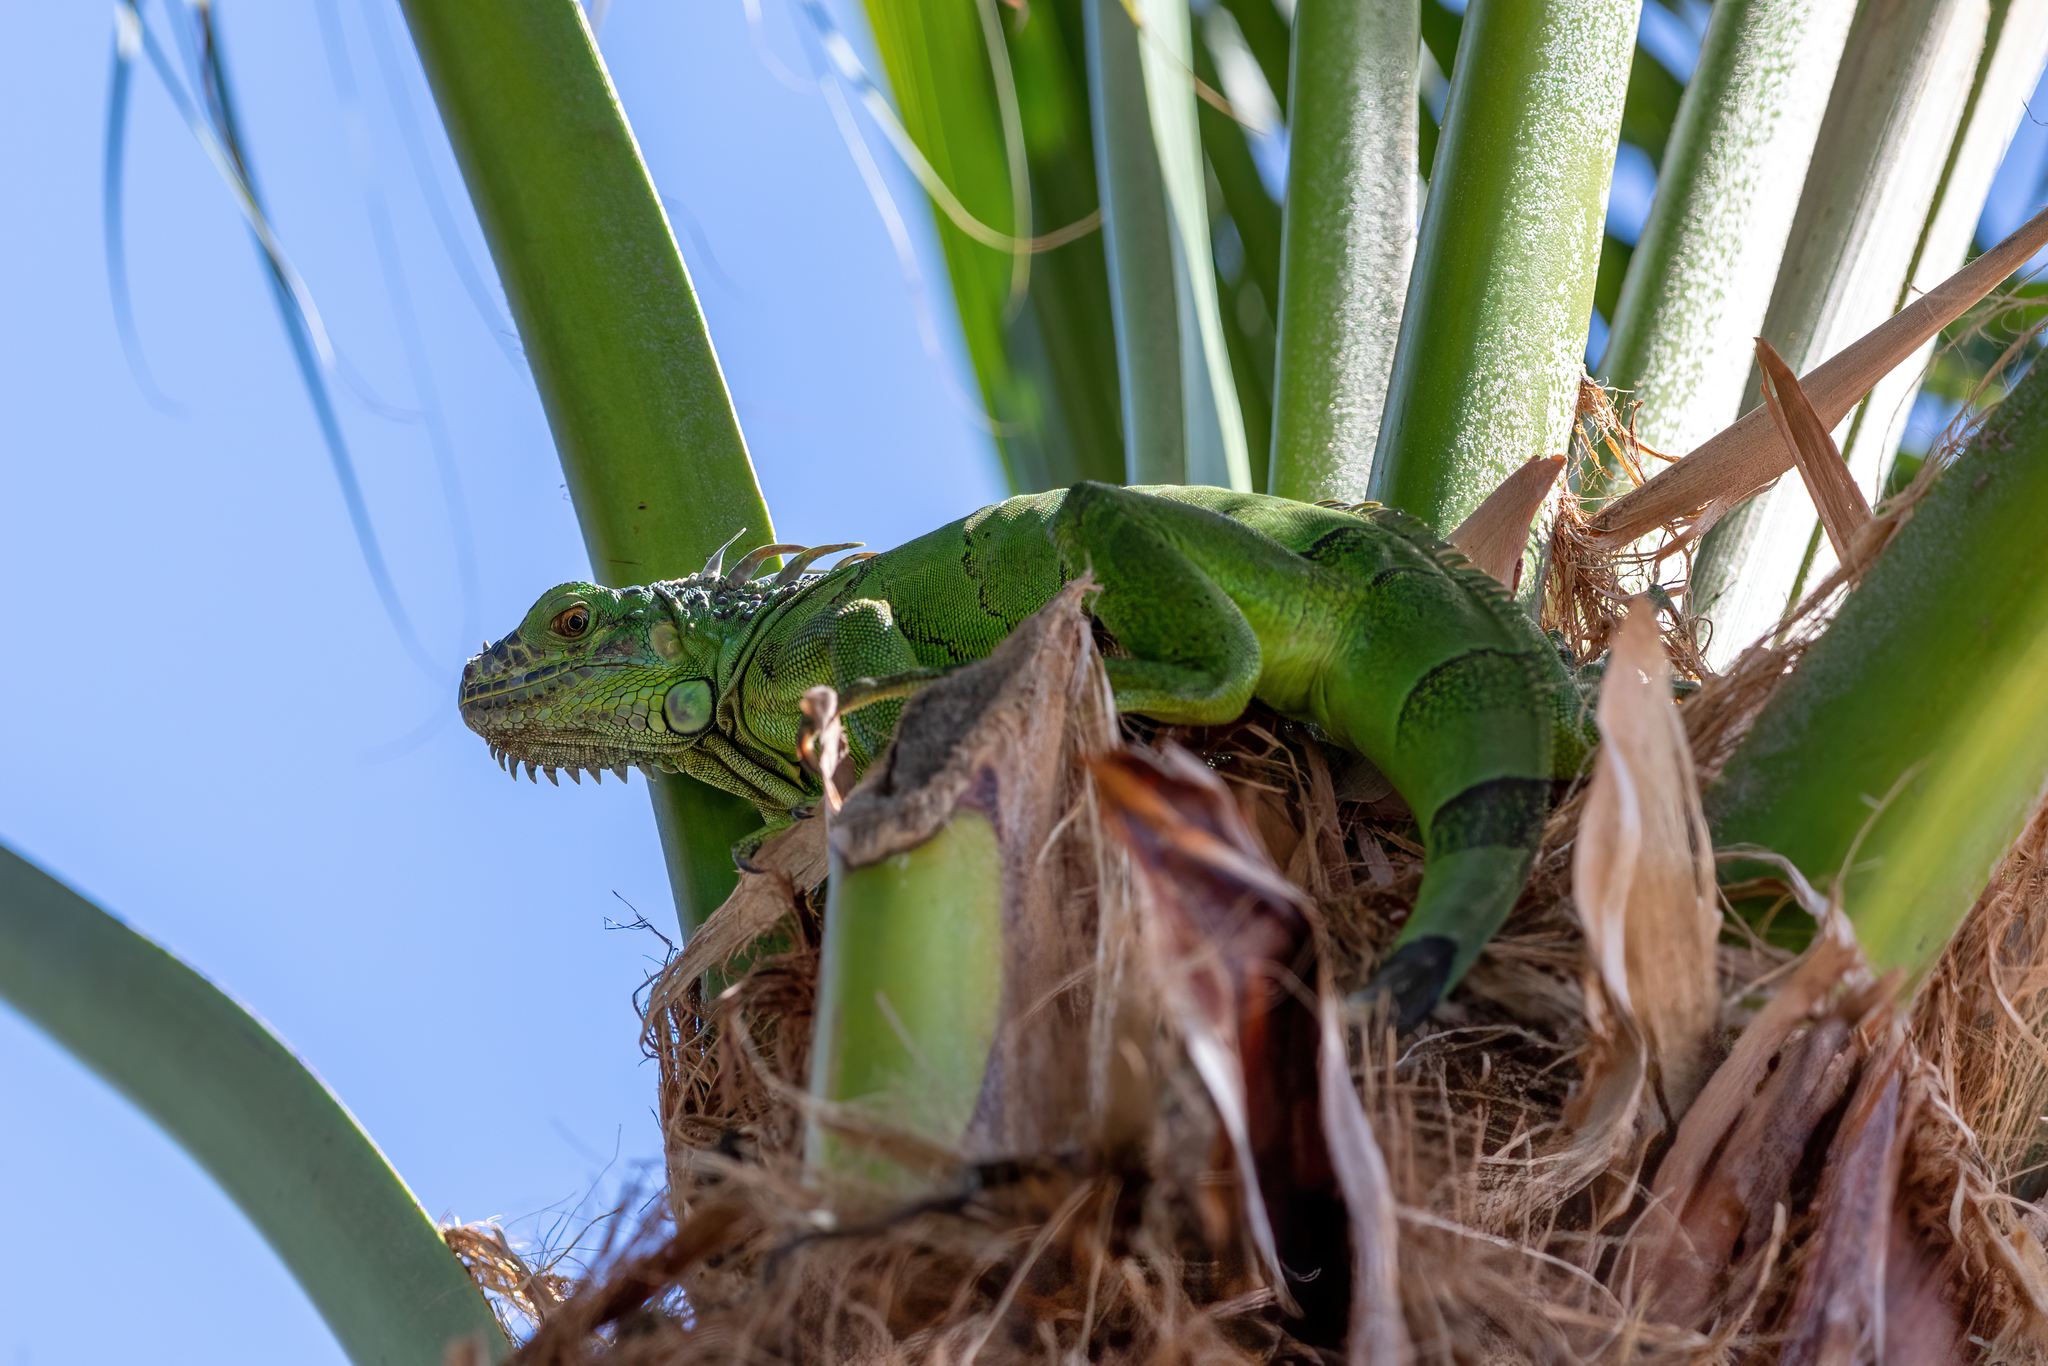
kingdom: Animalia
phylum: Chordata
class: Squamata
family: Iguanidae
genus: Iguana
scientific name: Iguana iguana
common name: Green iguana
